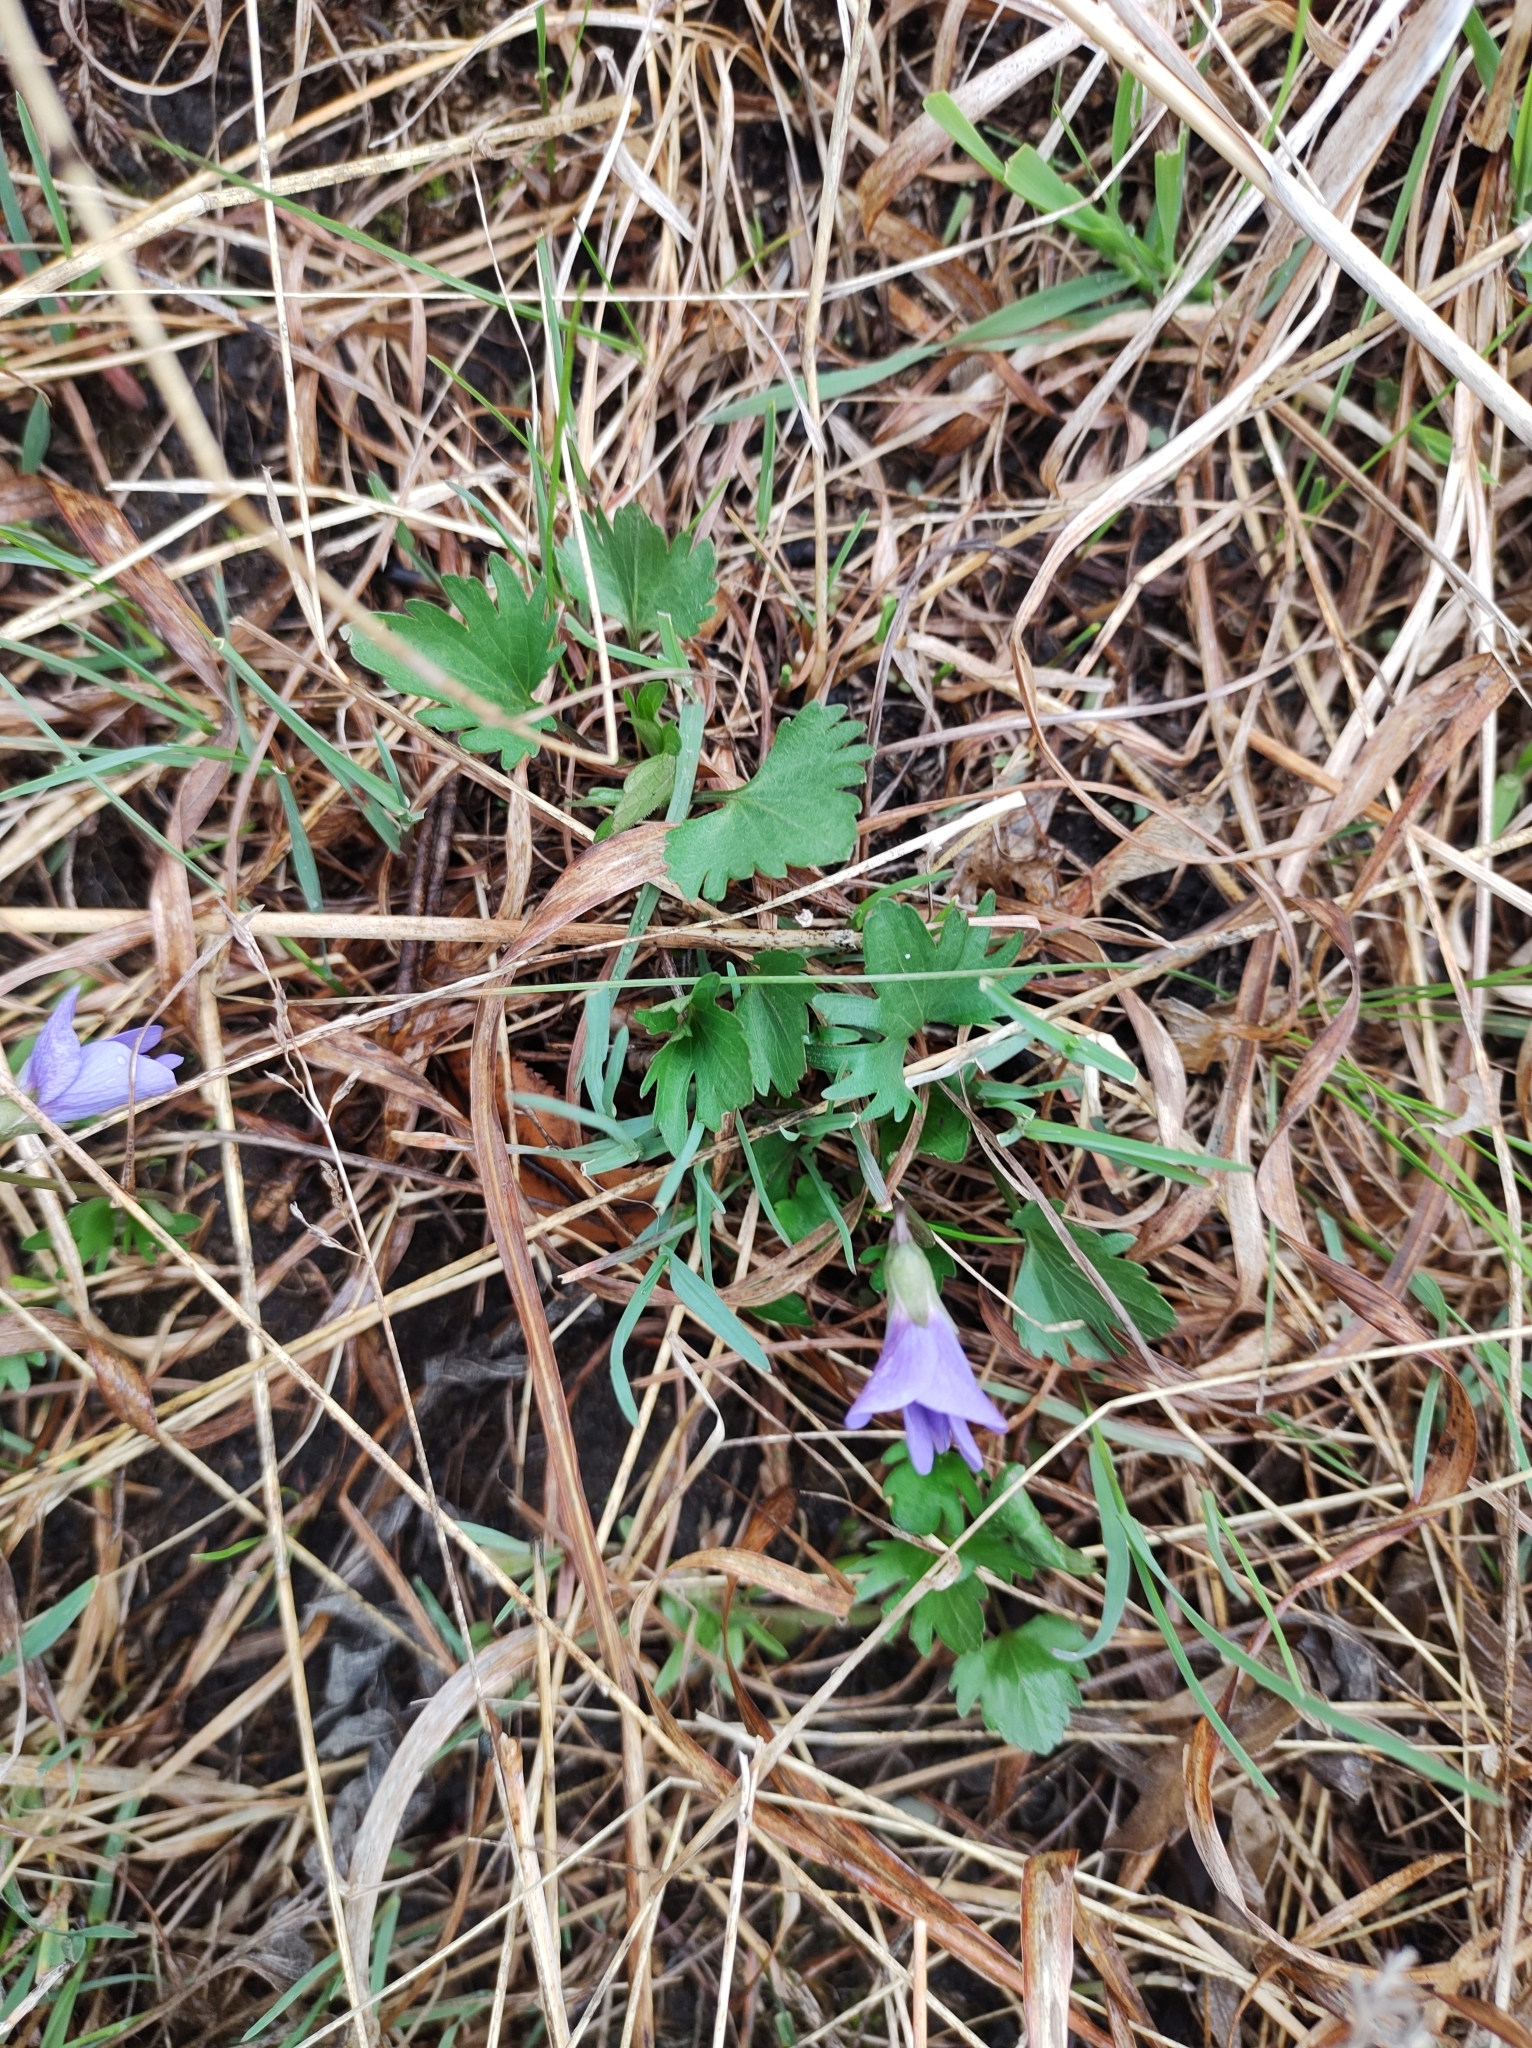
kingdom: Plantae
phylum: Tracheophyta
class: Magnoliopsida
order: Malpighiales
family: Violaceae
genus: Viola
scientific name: Viola pedatifida
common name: Prairie violet
